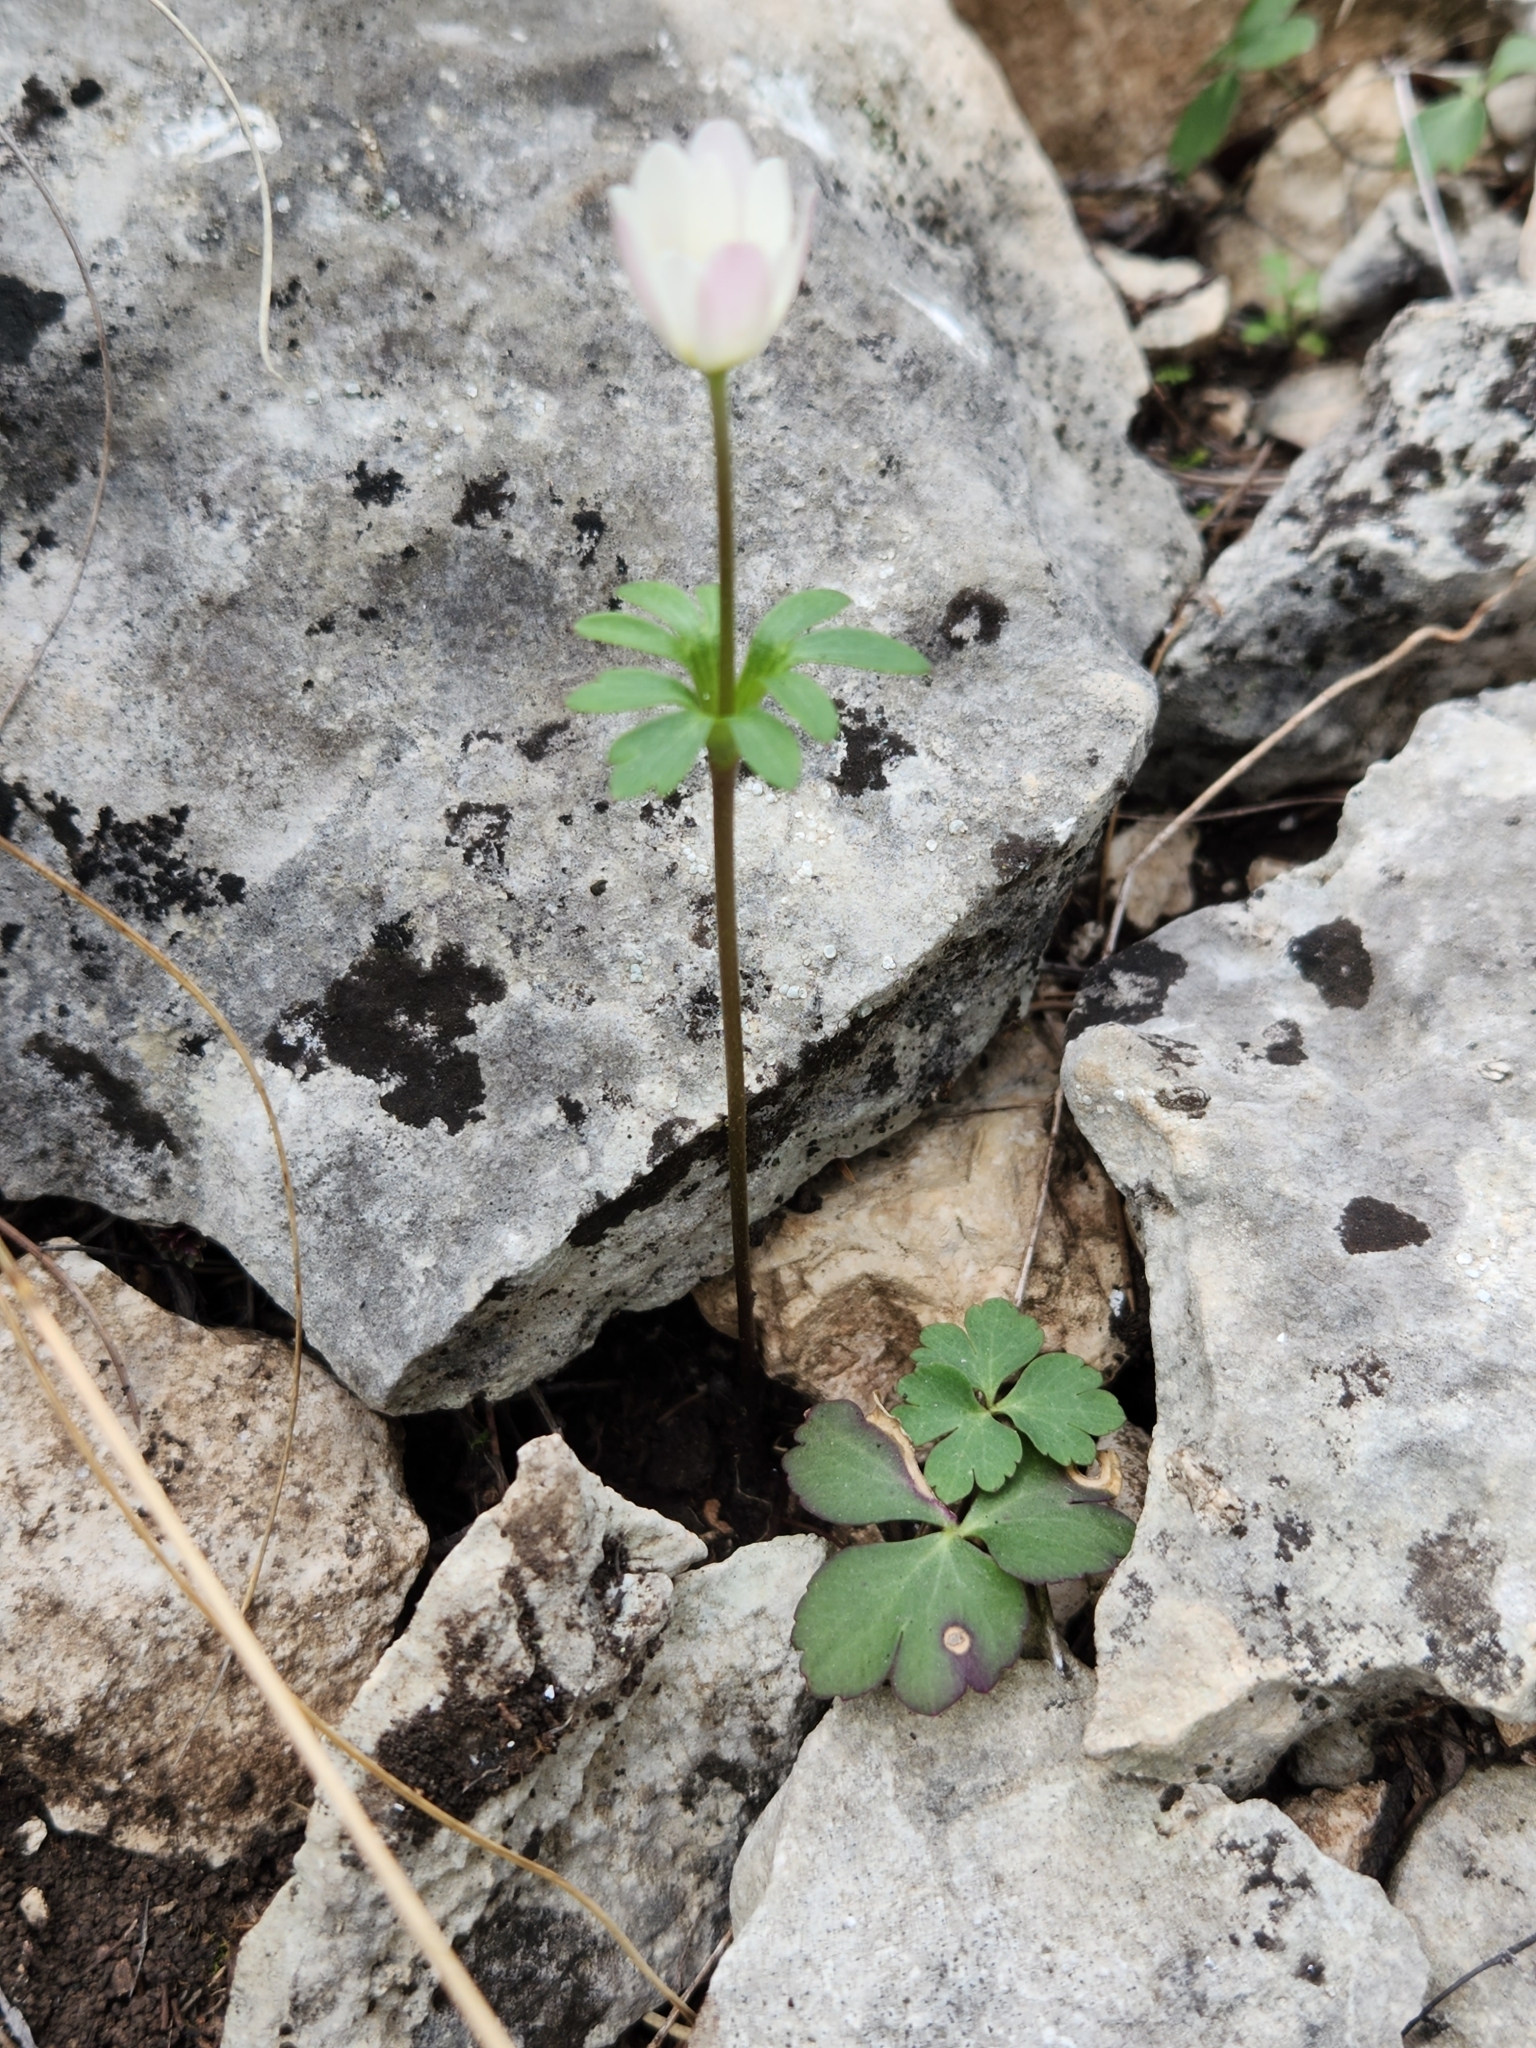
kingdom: Plantae
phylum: Tracheophyta
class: Magnoliopsida
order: Ranunculales
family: Ranunculaceae
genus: Anemone
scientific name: Anemone edwardsiana
